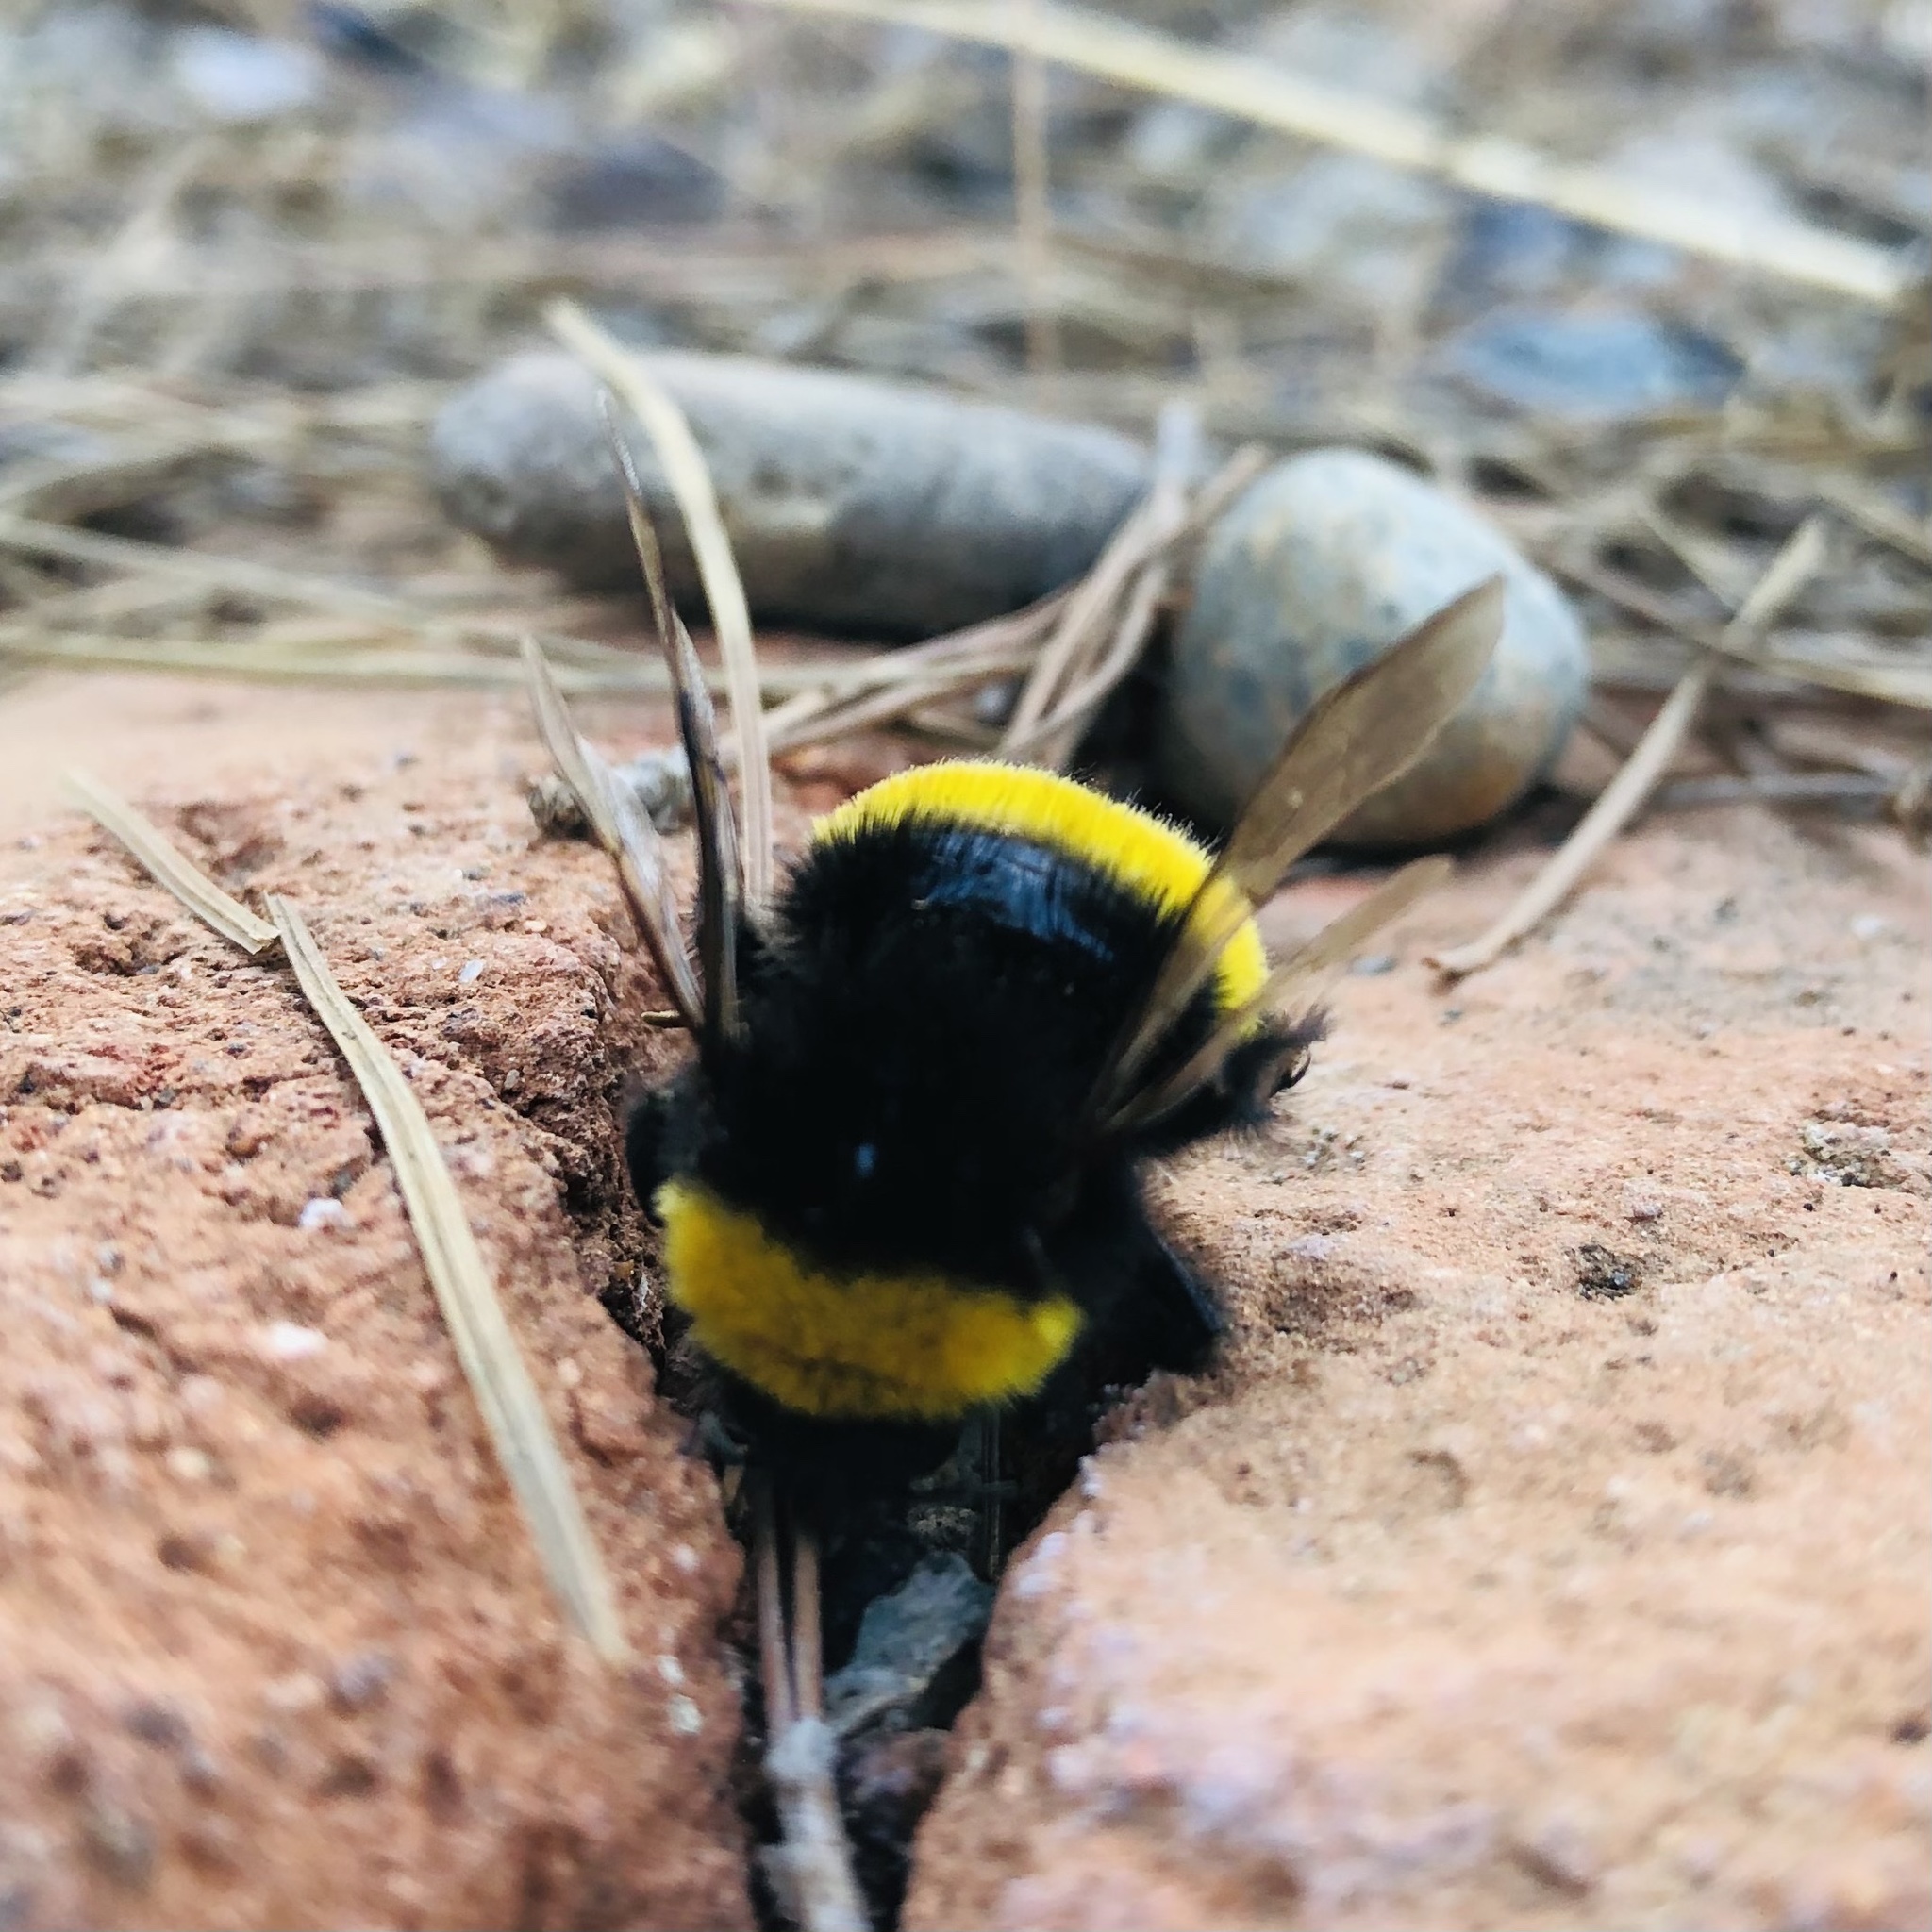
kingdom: Animalia
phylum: Arthropoda
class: Insecta
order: Hymenoptera
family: Apidae
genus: Bombus
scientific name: Bombus terrestris
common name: Buff-tailed bumblebee
